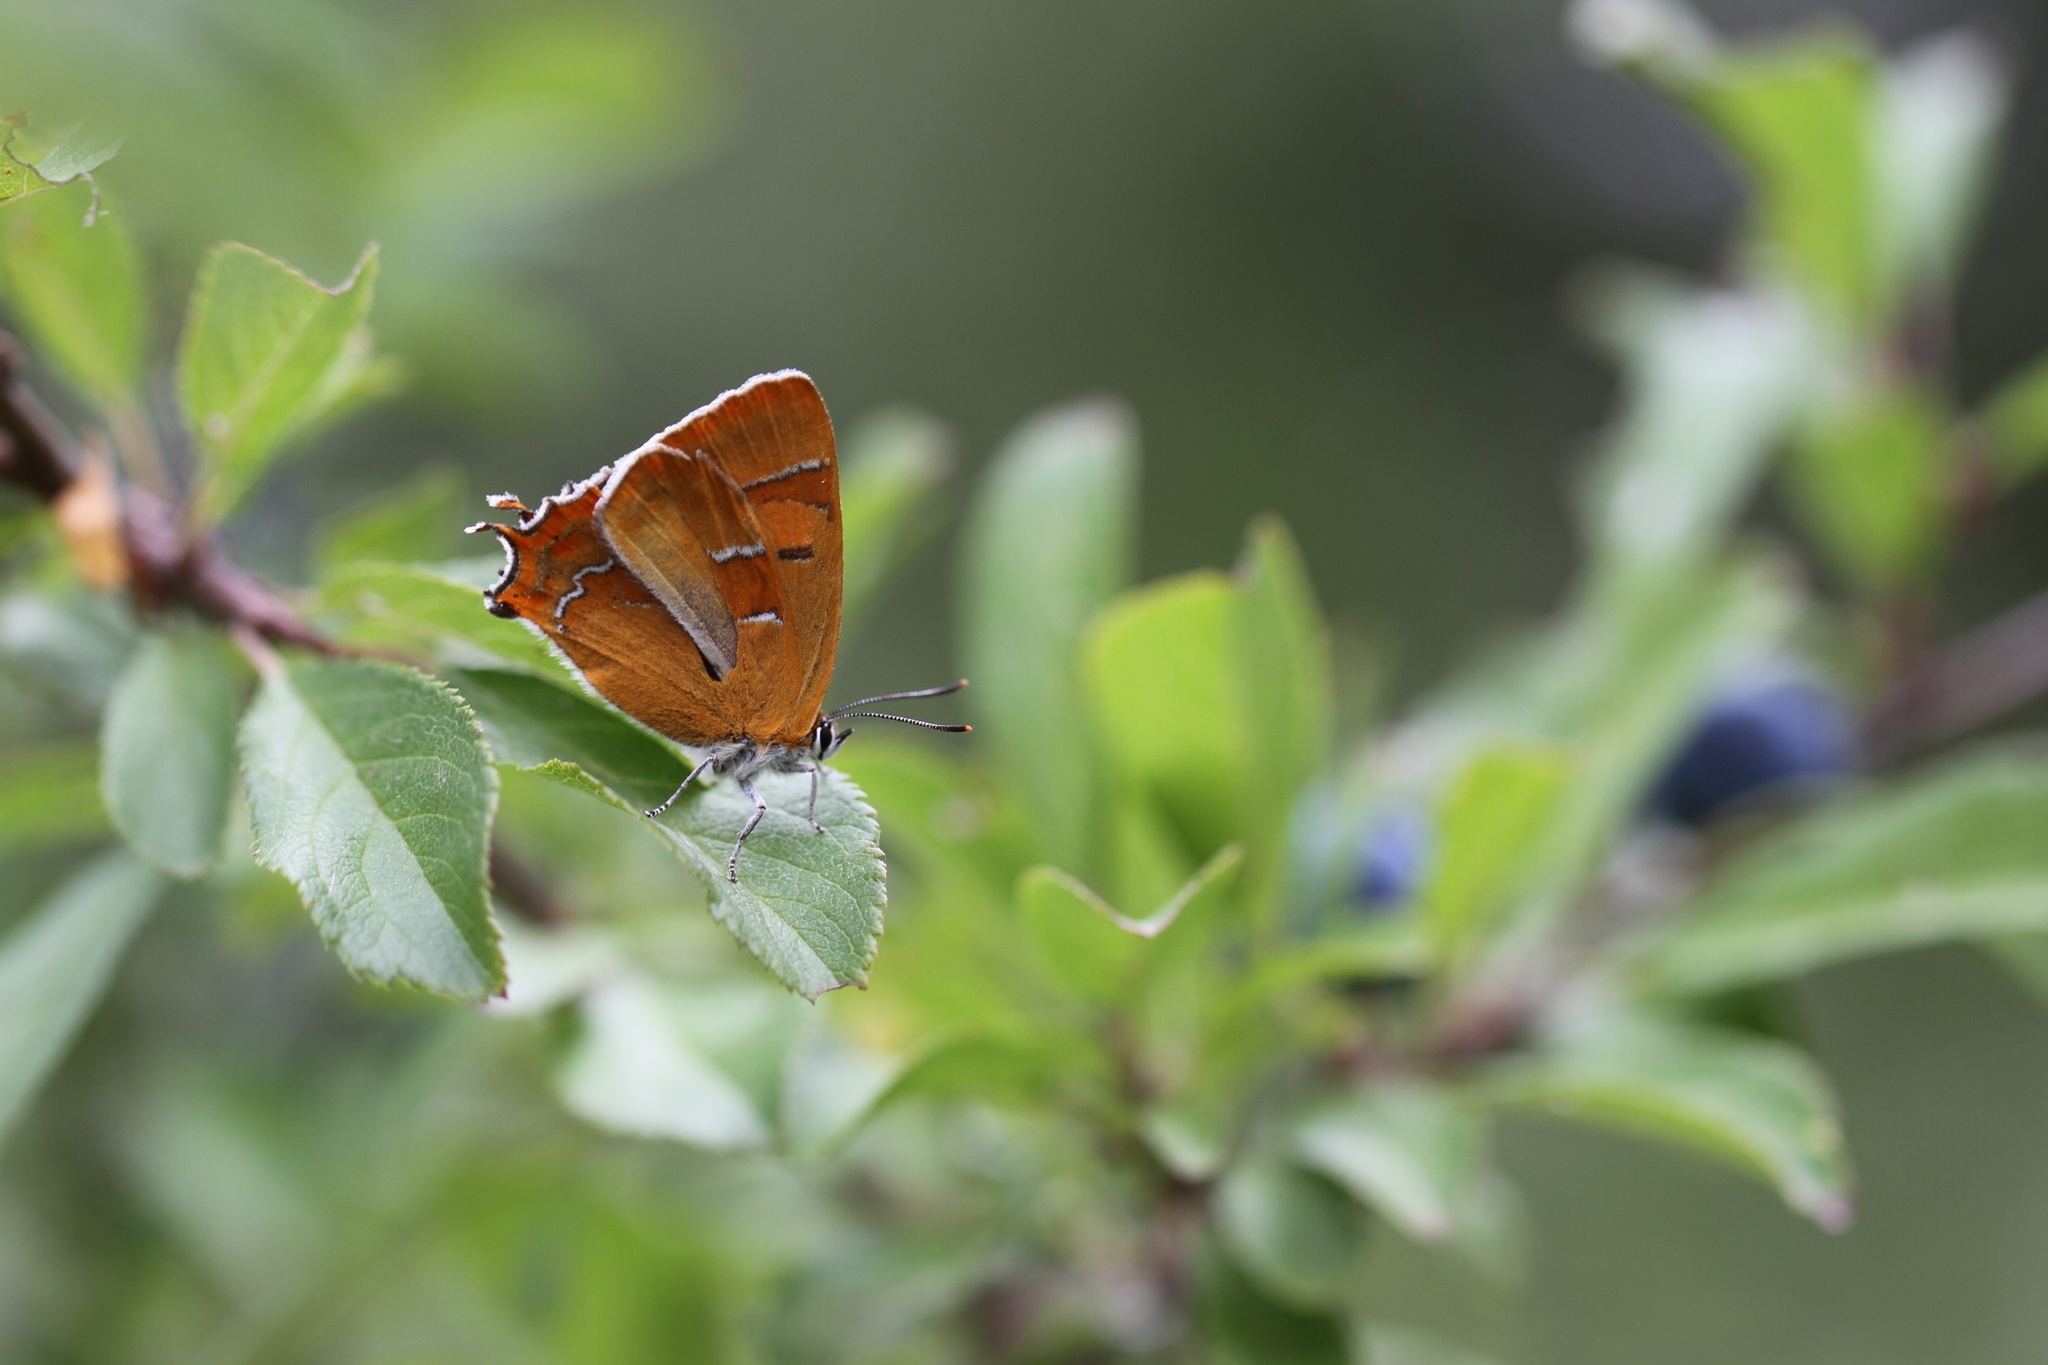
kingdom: Animalia
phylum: Arthropoda
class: Insecta
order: Lepidoptera
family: Lycaenidae
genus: Thecla
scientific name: Thecla betulae
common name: Brown hairstreak
